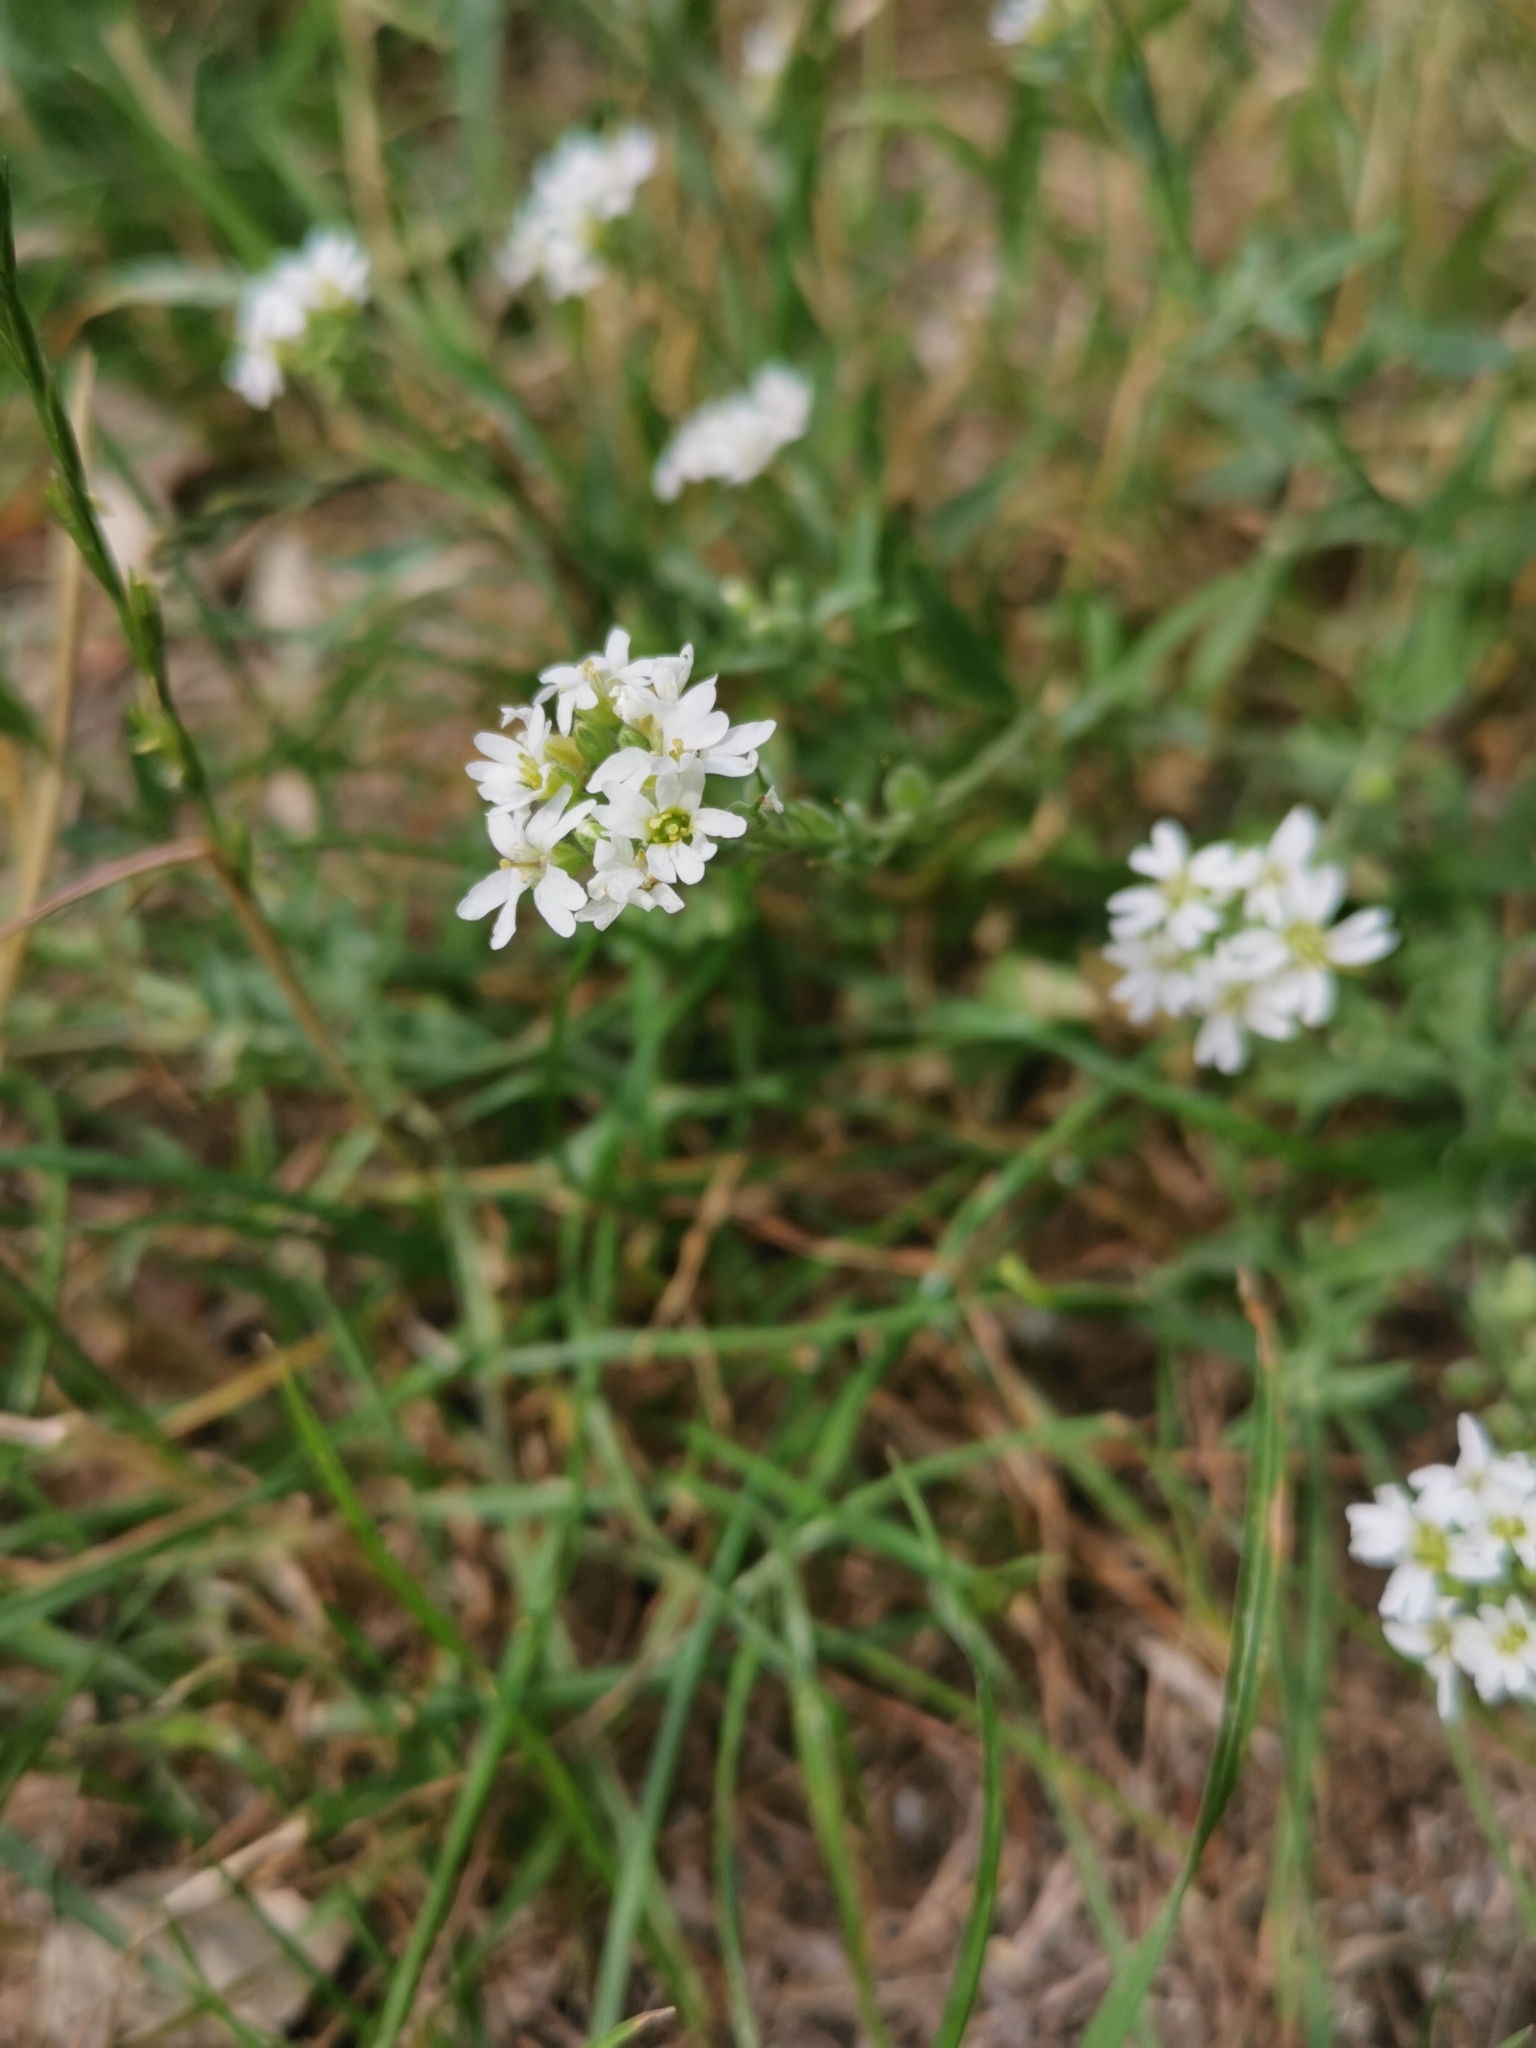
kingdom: Plantae
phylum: Tracheophyta
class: Magnoliopsida
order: Brassicales
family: Brassicaceae
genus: Berteroa
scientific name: Berteroa incana
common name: Hoary alison
